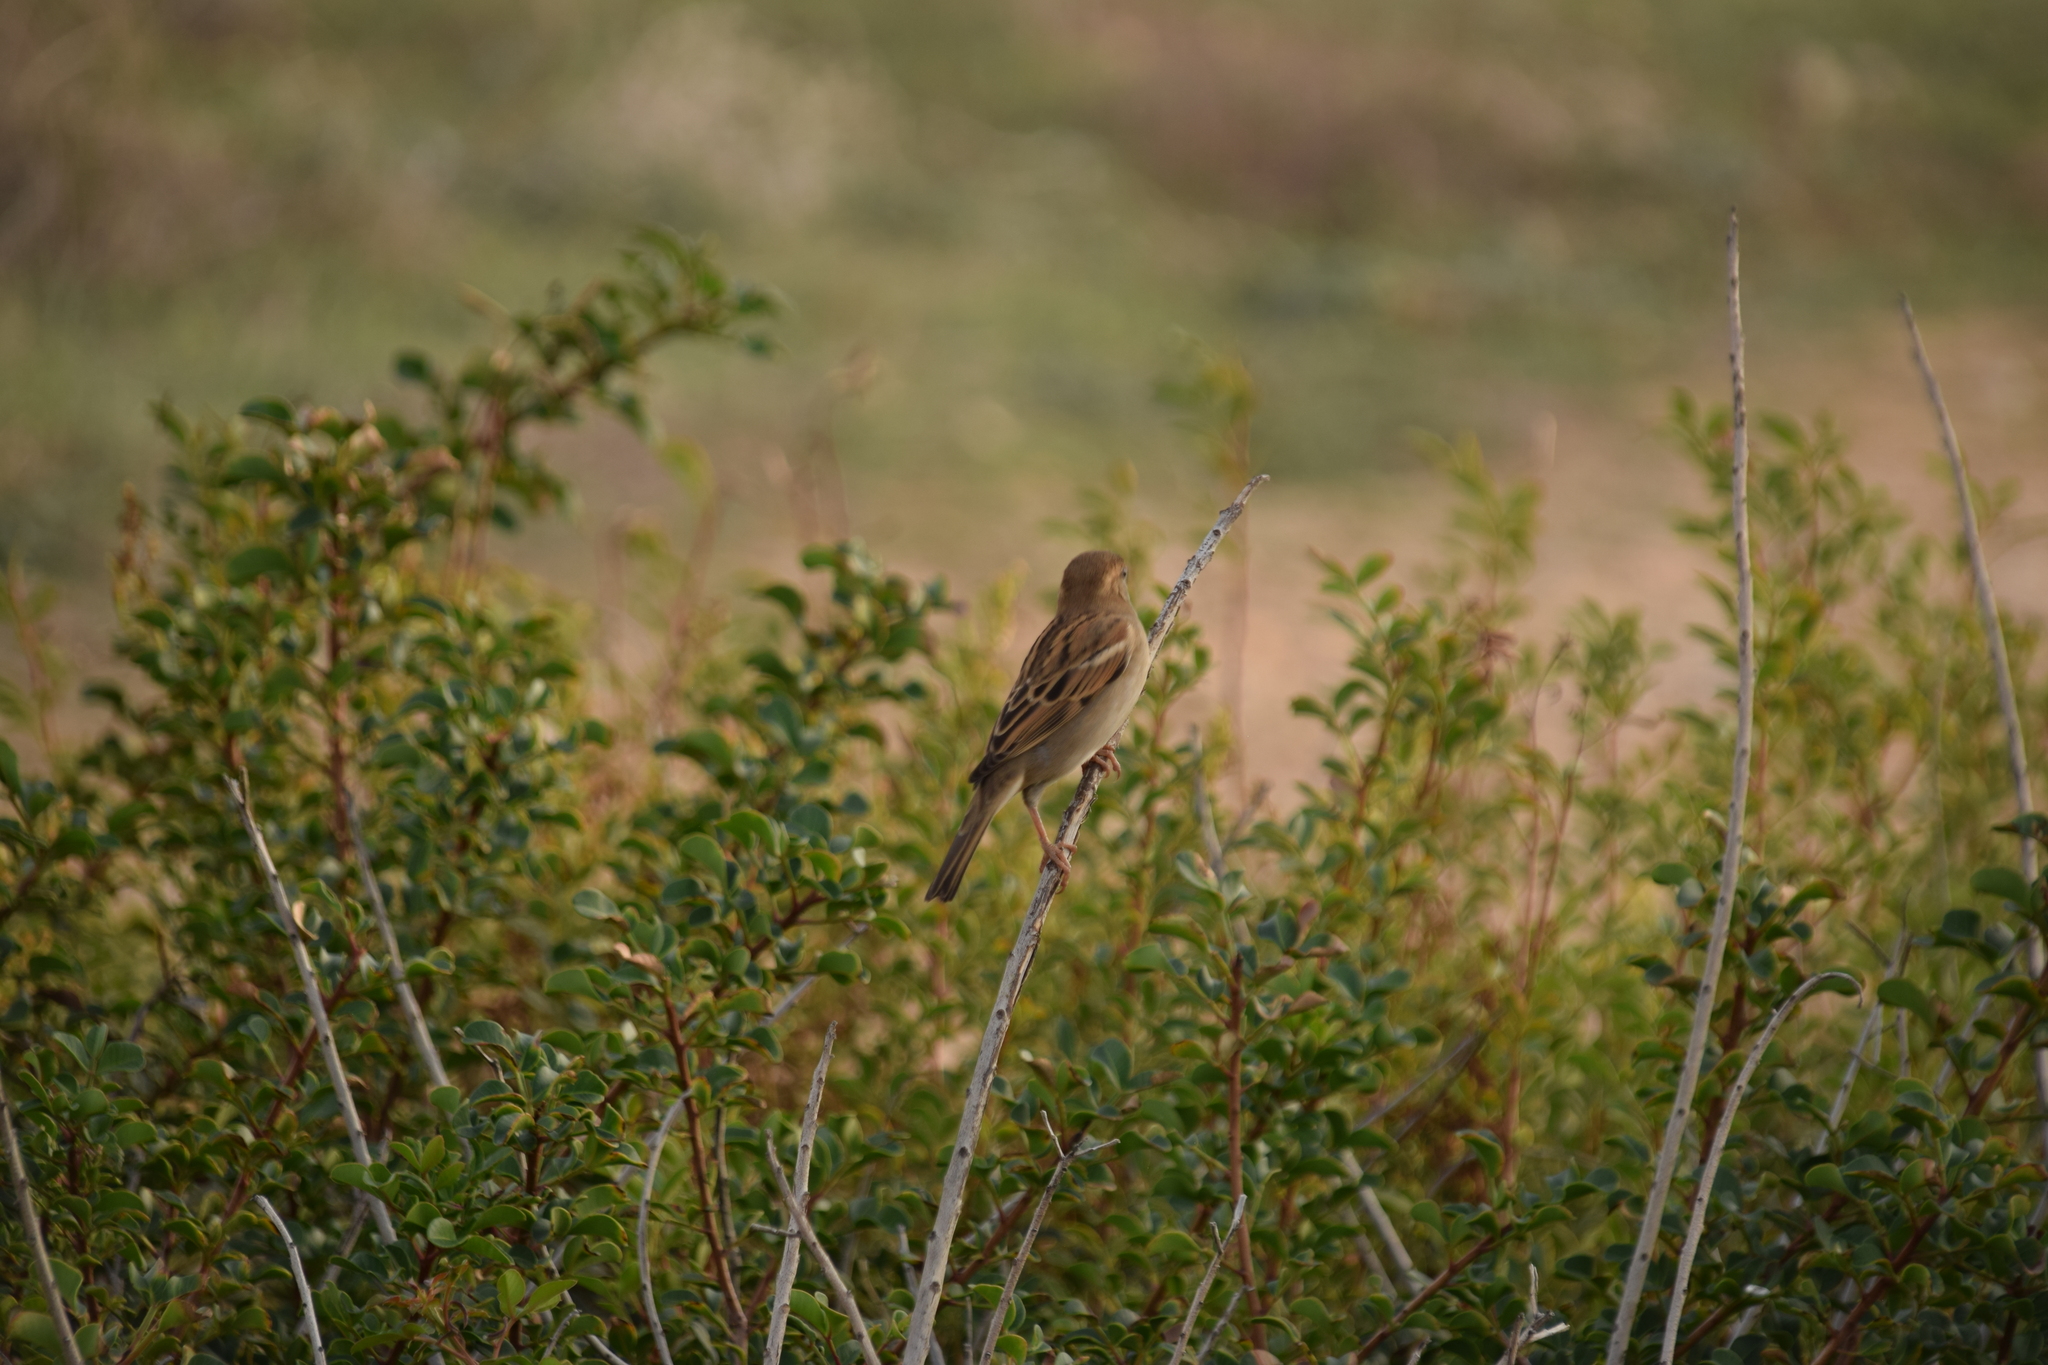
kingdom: Animalia
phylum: Chordata
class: Aves
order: Passeriformes
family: Passeridae
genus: Passer
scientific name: Passer domesticus
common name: House sparrow
